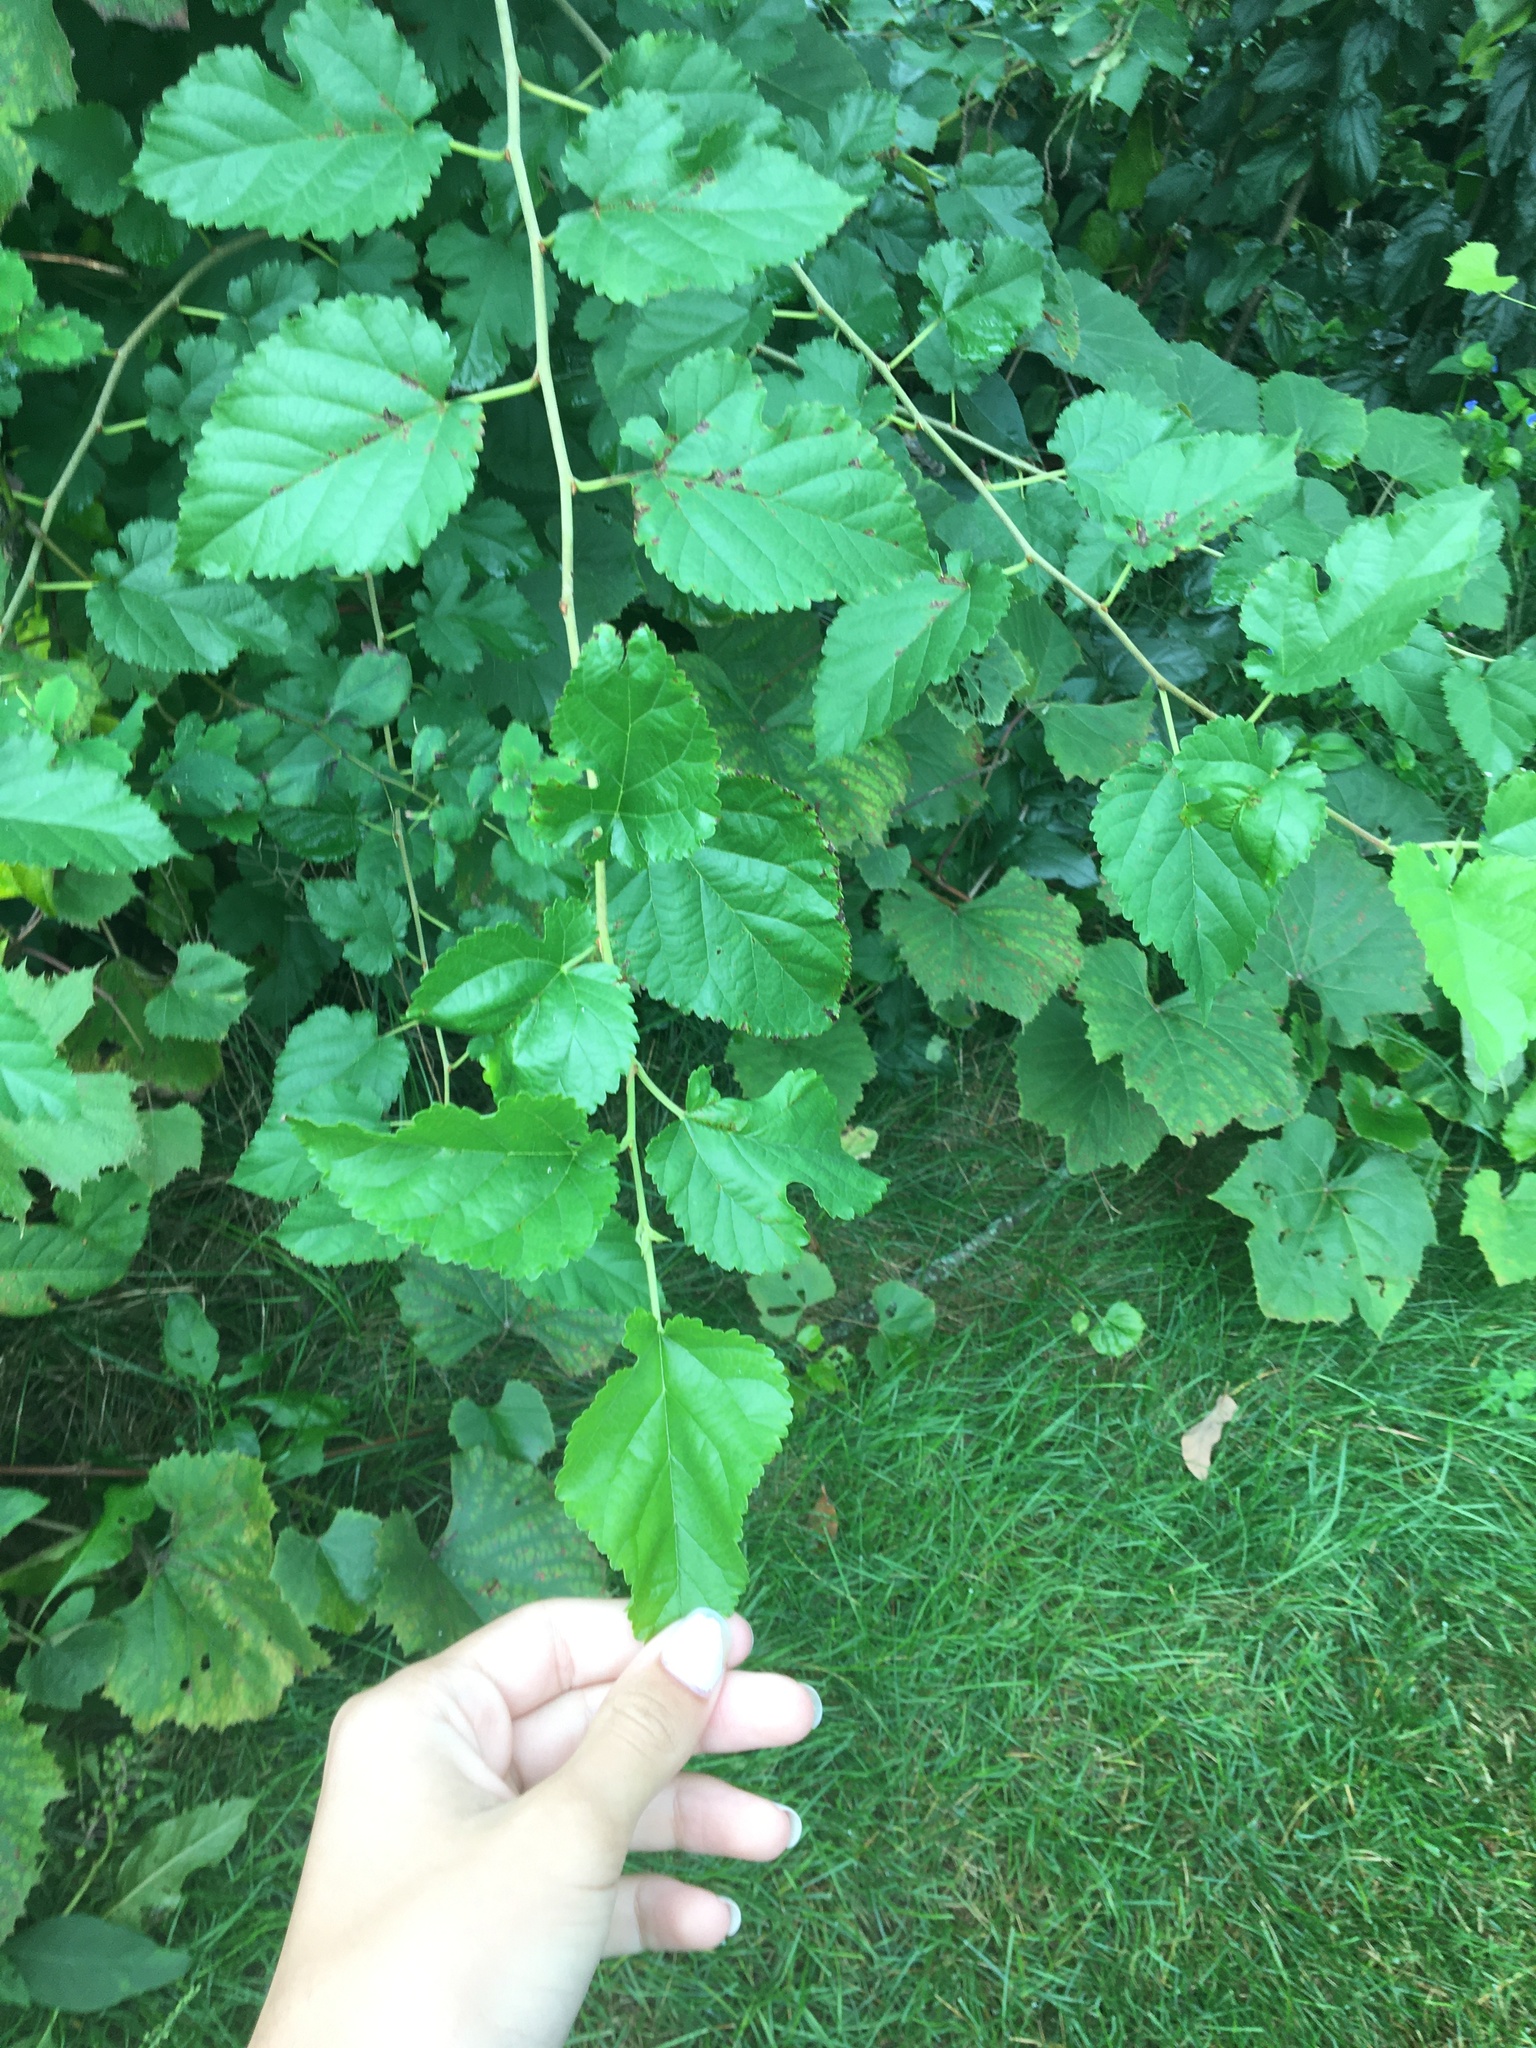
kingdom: Plantae
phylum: Tracheophyta
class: Magnoliopsida
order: Rosales
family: Moraceae
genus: Morus
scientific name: Morus alba
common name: White mulberry
